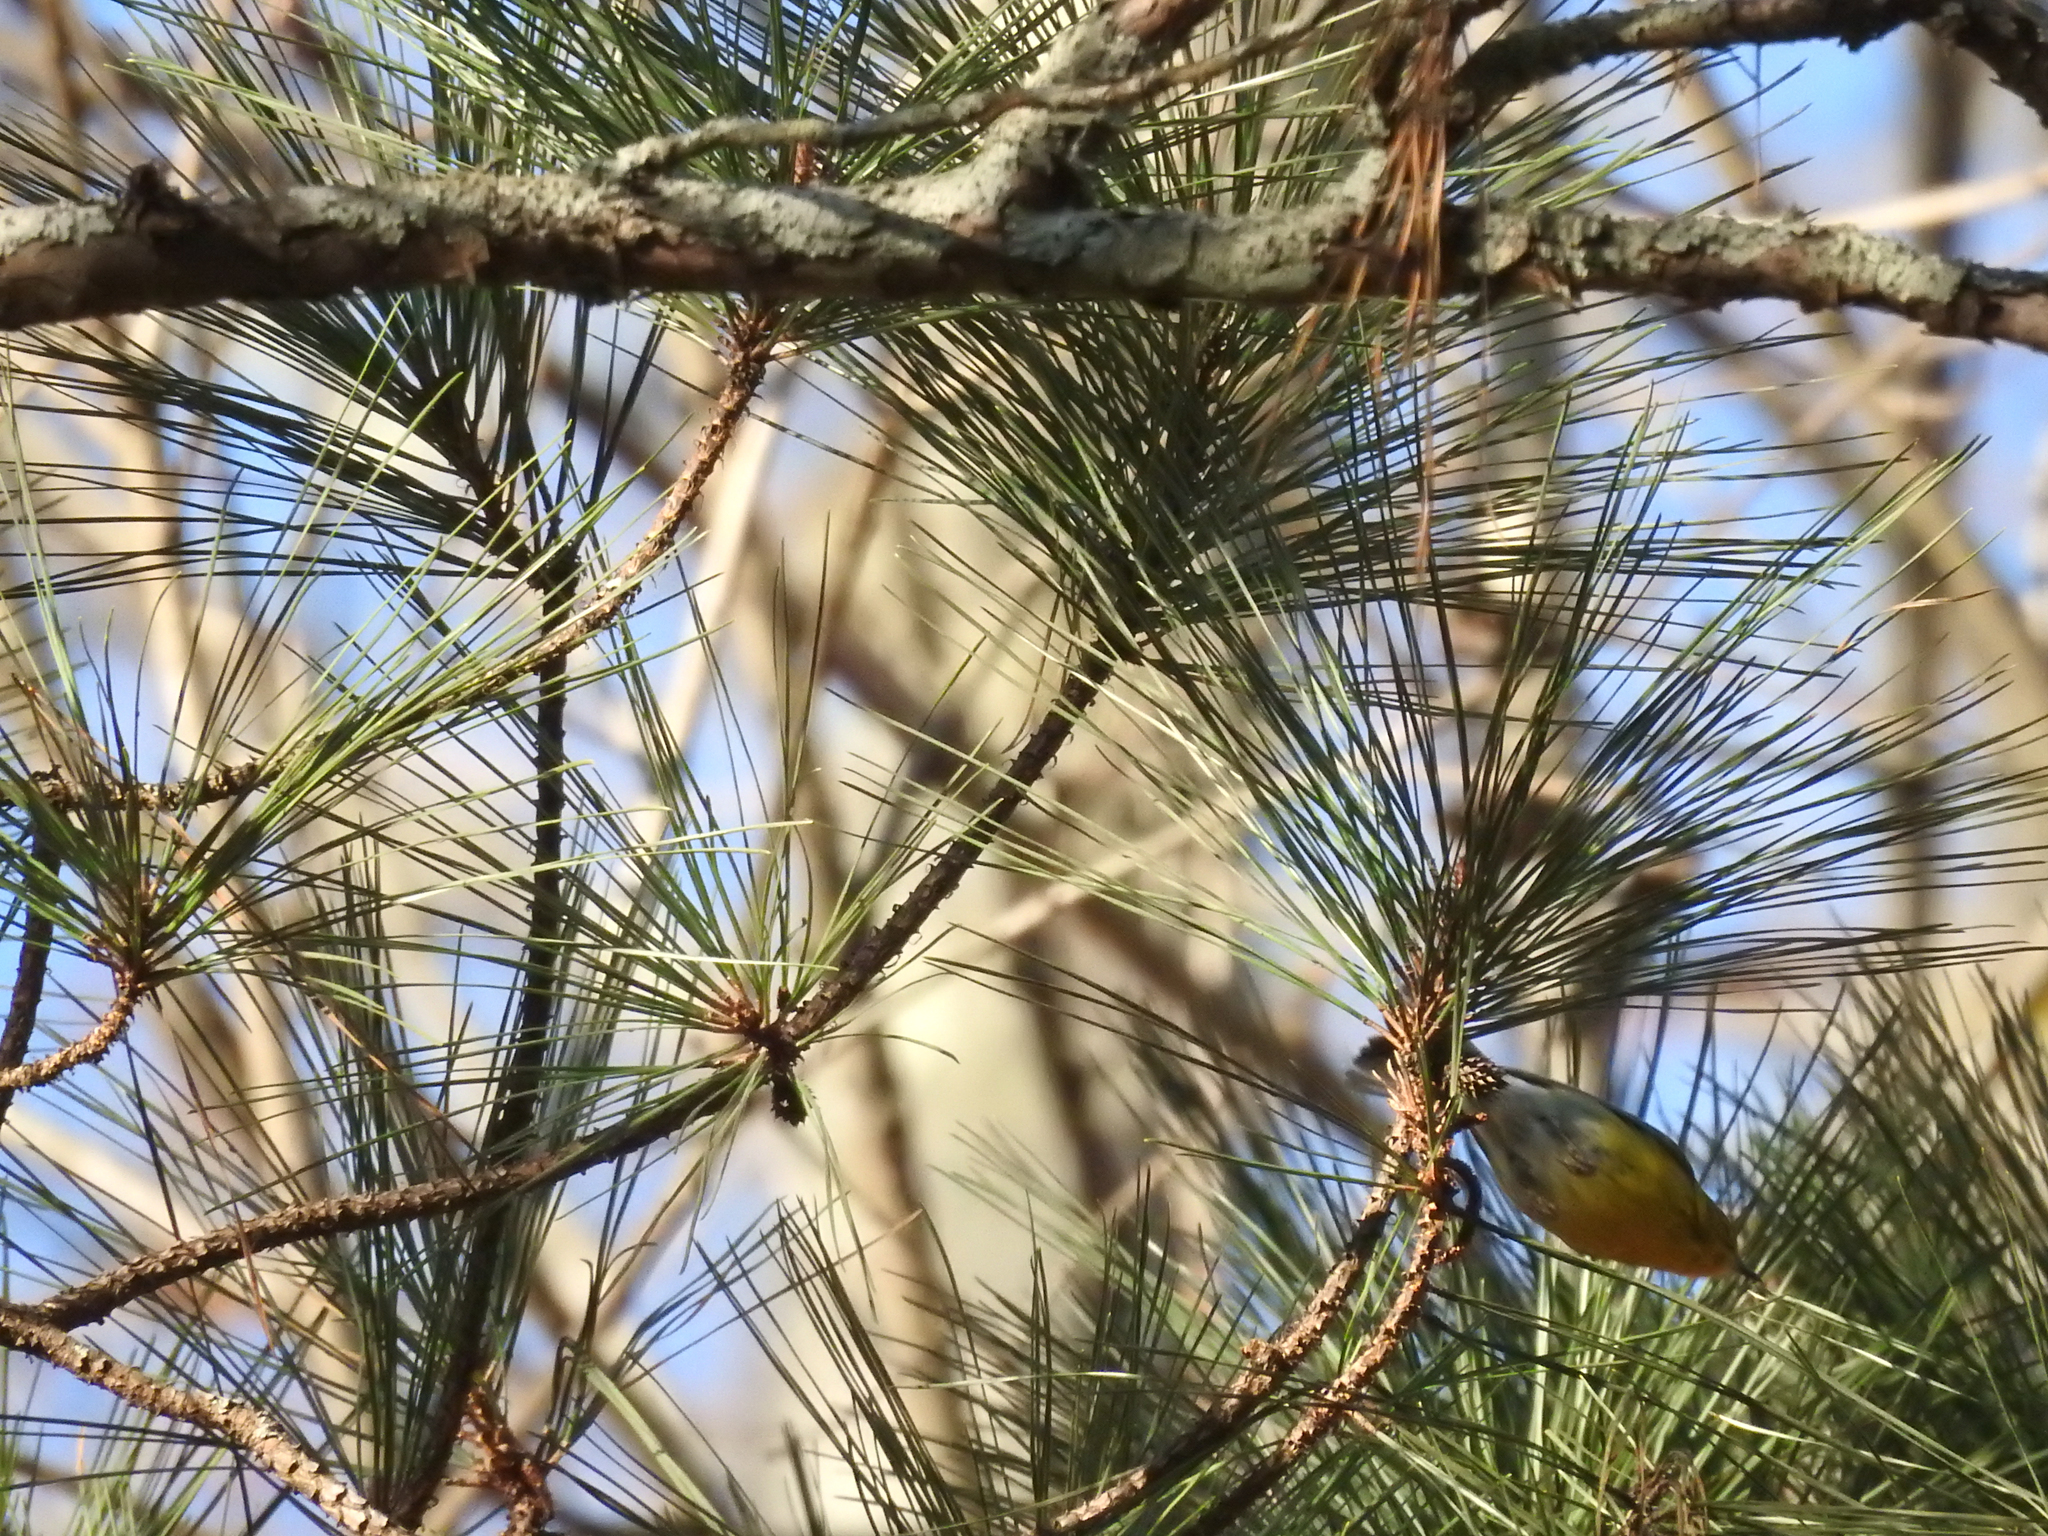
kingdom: Animalia
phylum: Chordata
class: Aves
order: Passeriformes
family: Parulidae
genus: Setophaga
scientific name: Setophaga pinus
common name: Pine warbler
